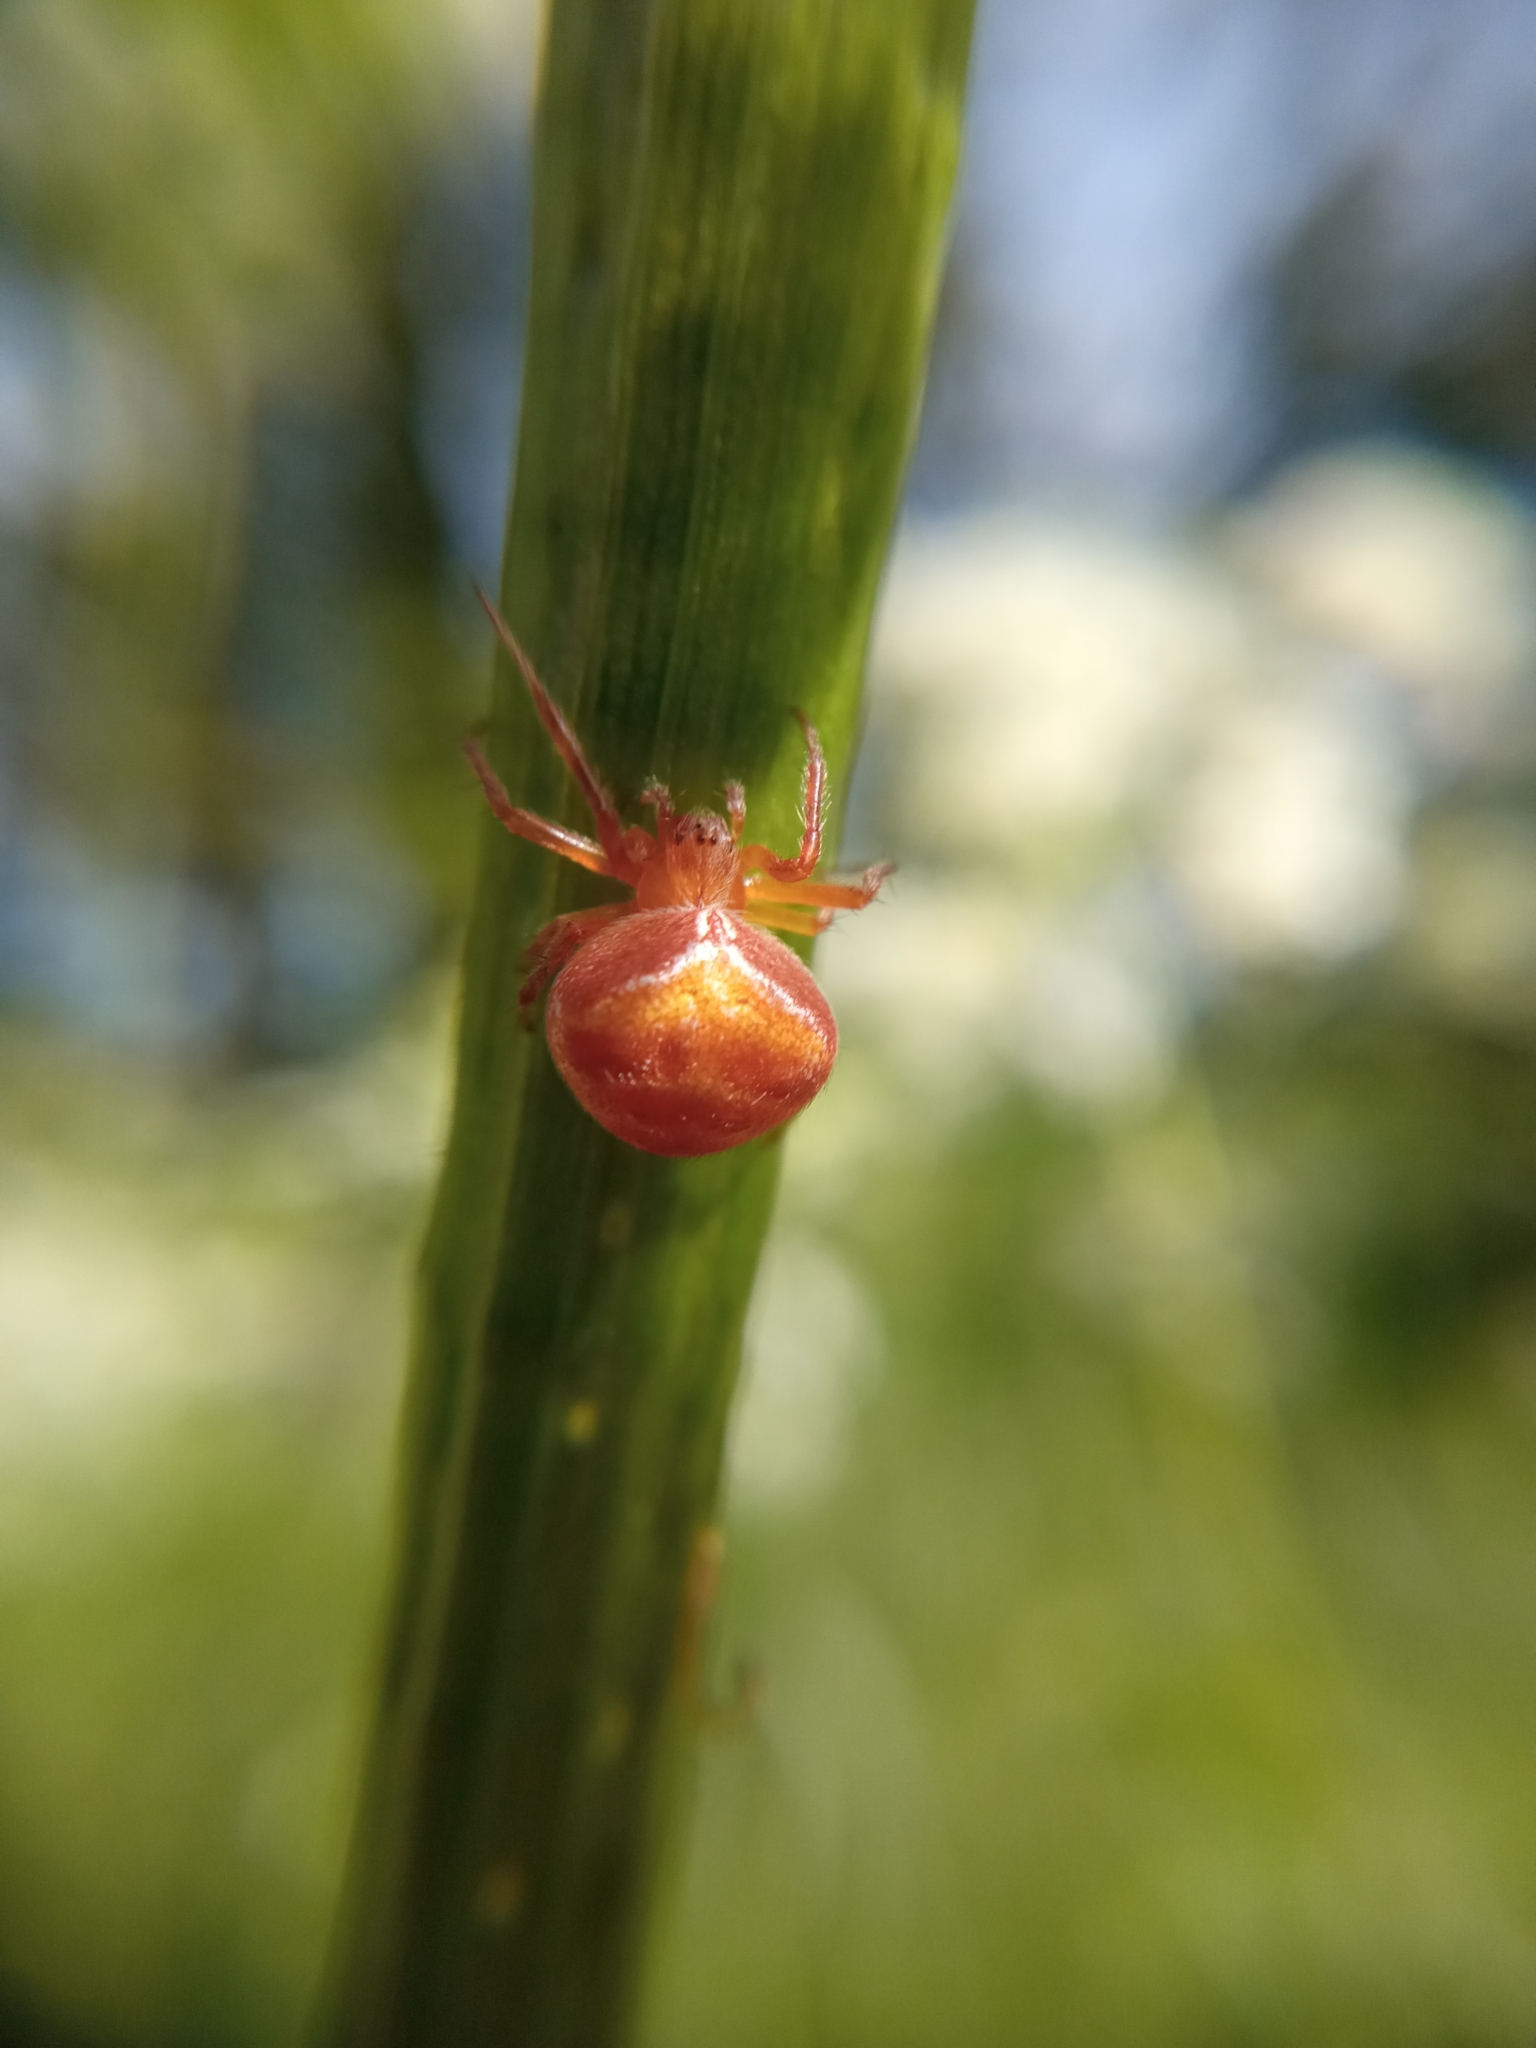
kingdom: Animalia
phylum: Arthropoda
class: Arachnida
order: Araneae
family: Araneidae
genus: Araneus
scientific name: Araneus triguttatus
